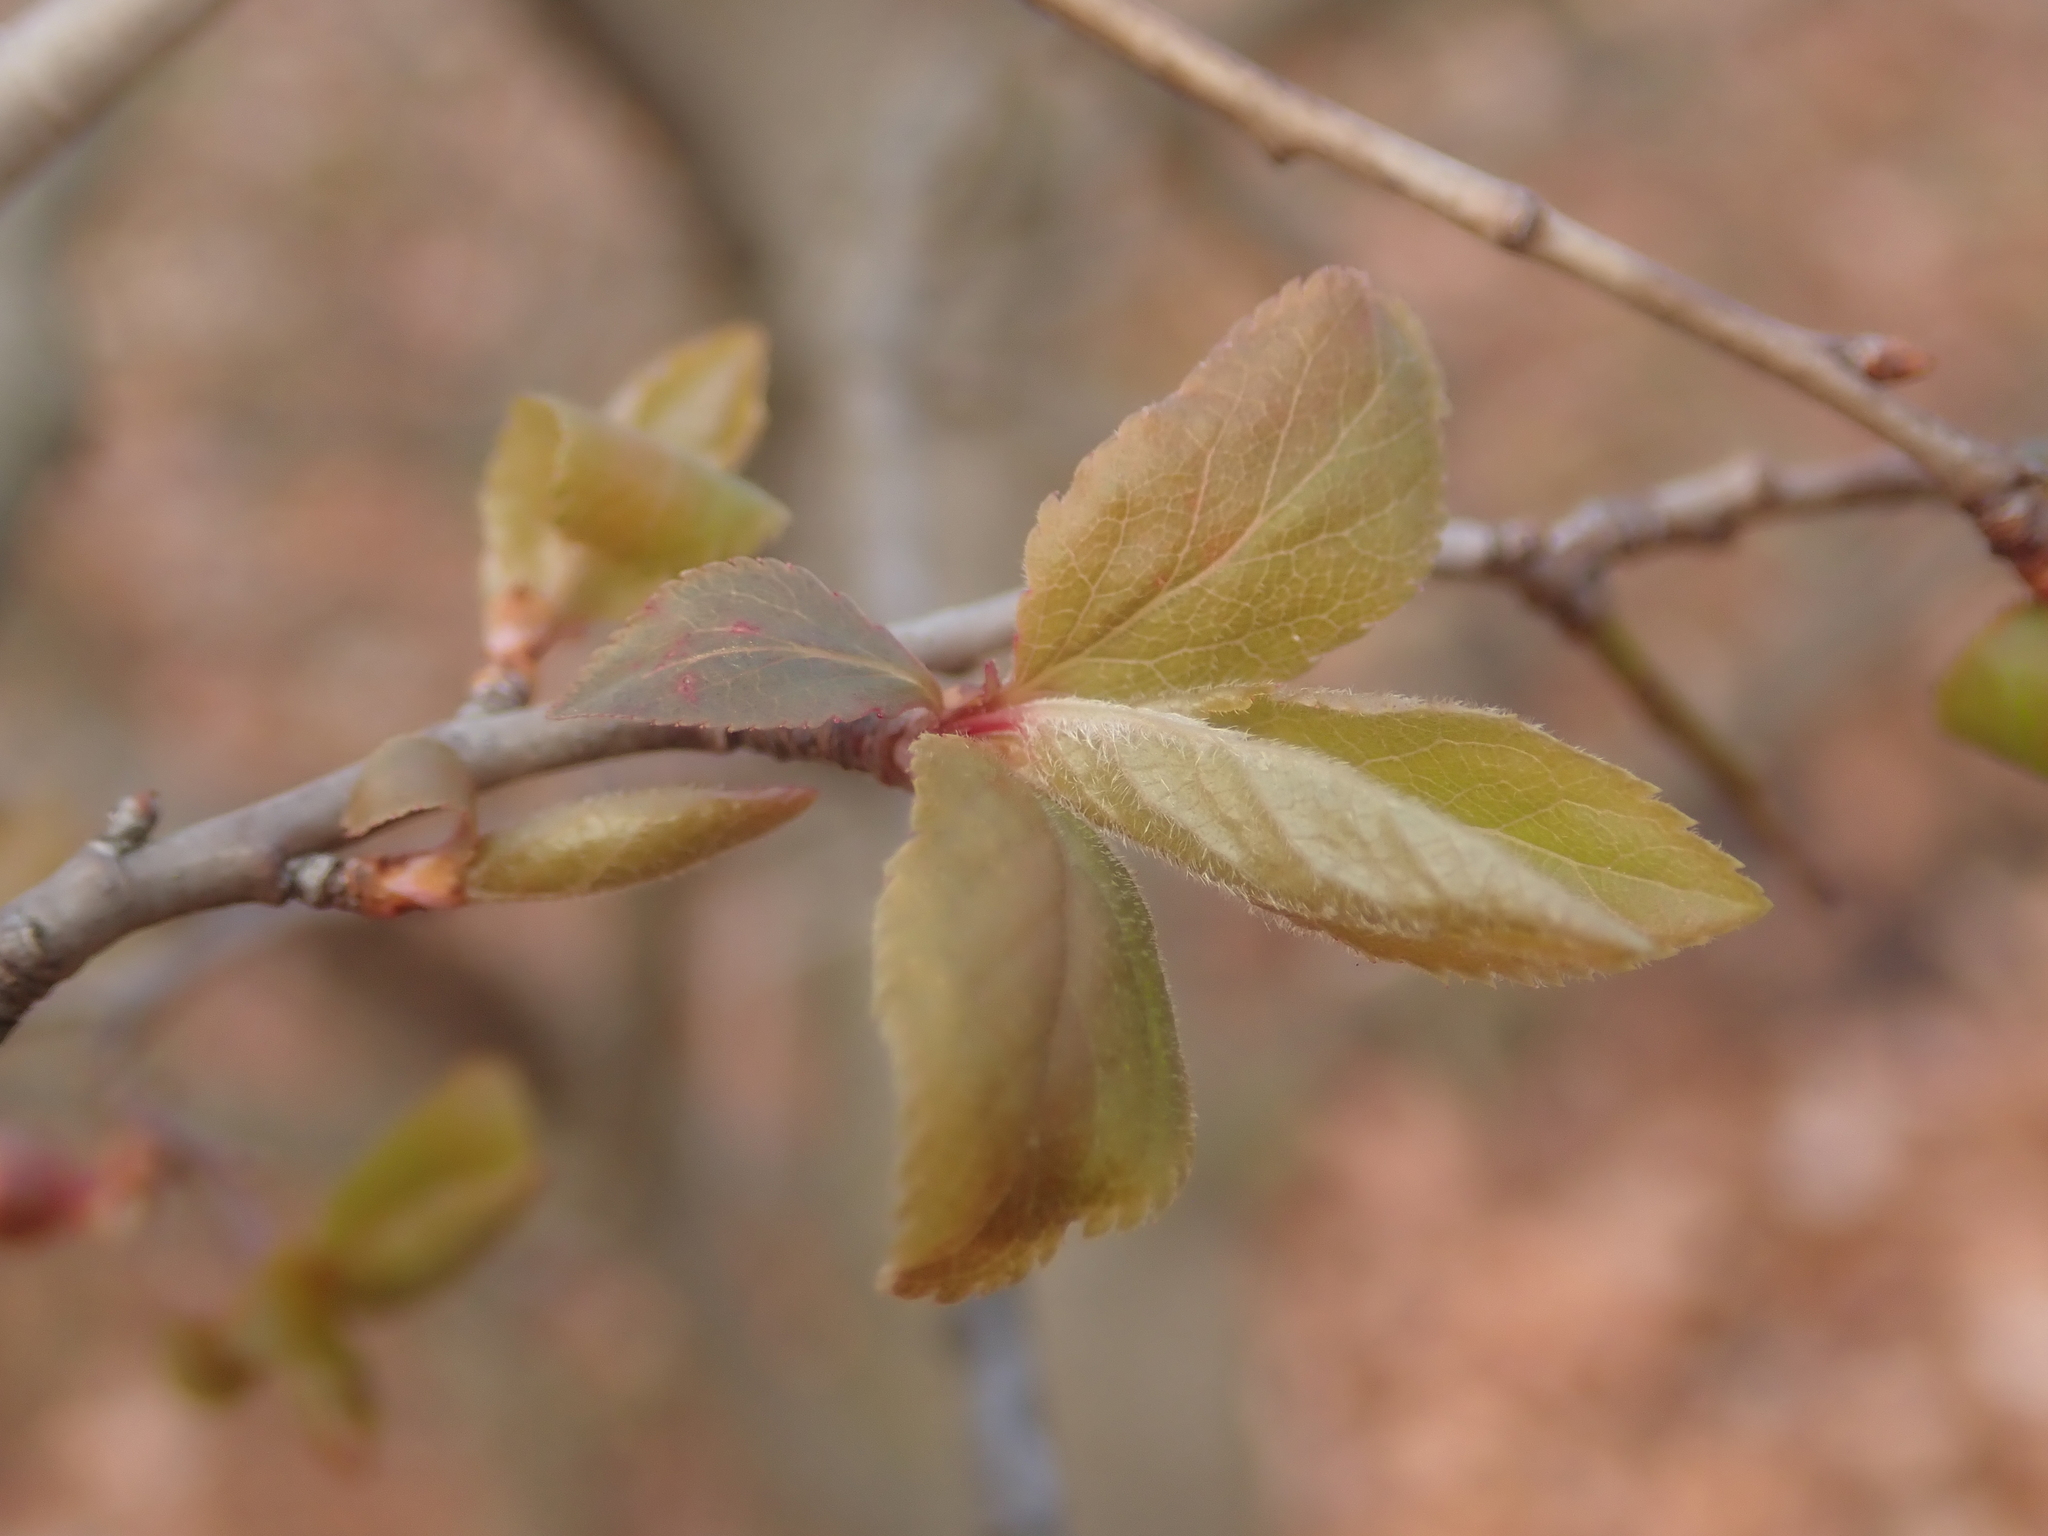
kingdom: Plantae
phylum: Tracheophyta
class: Magnoliopsida
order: Rosales
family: Rosaceae
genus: Prunus
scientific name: Prunus cerasifera
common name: Cherry plum
